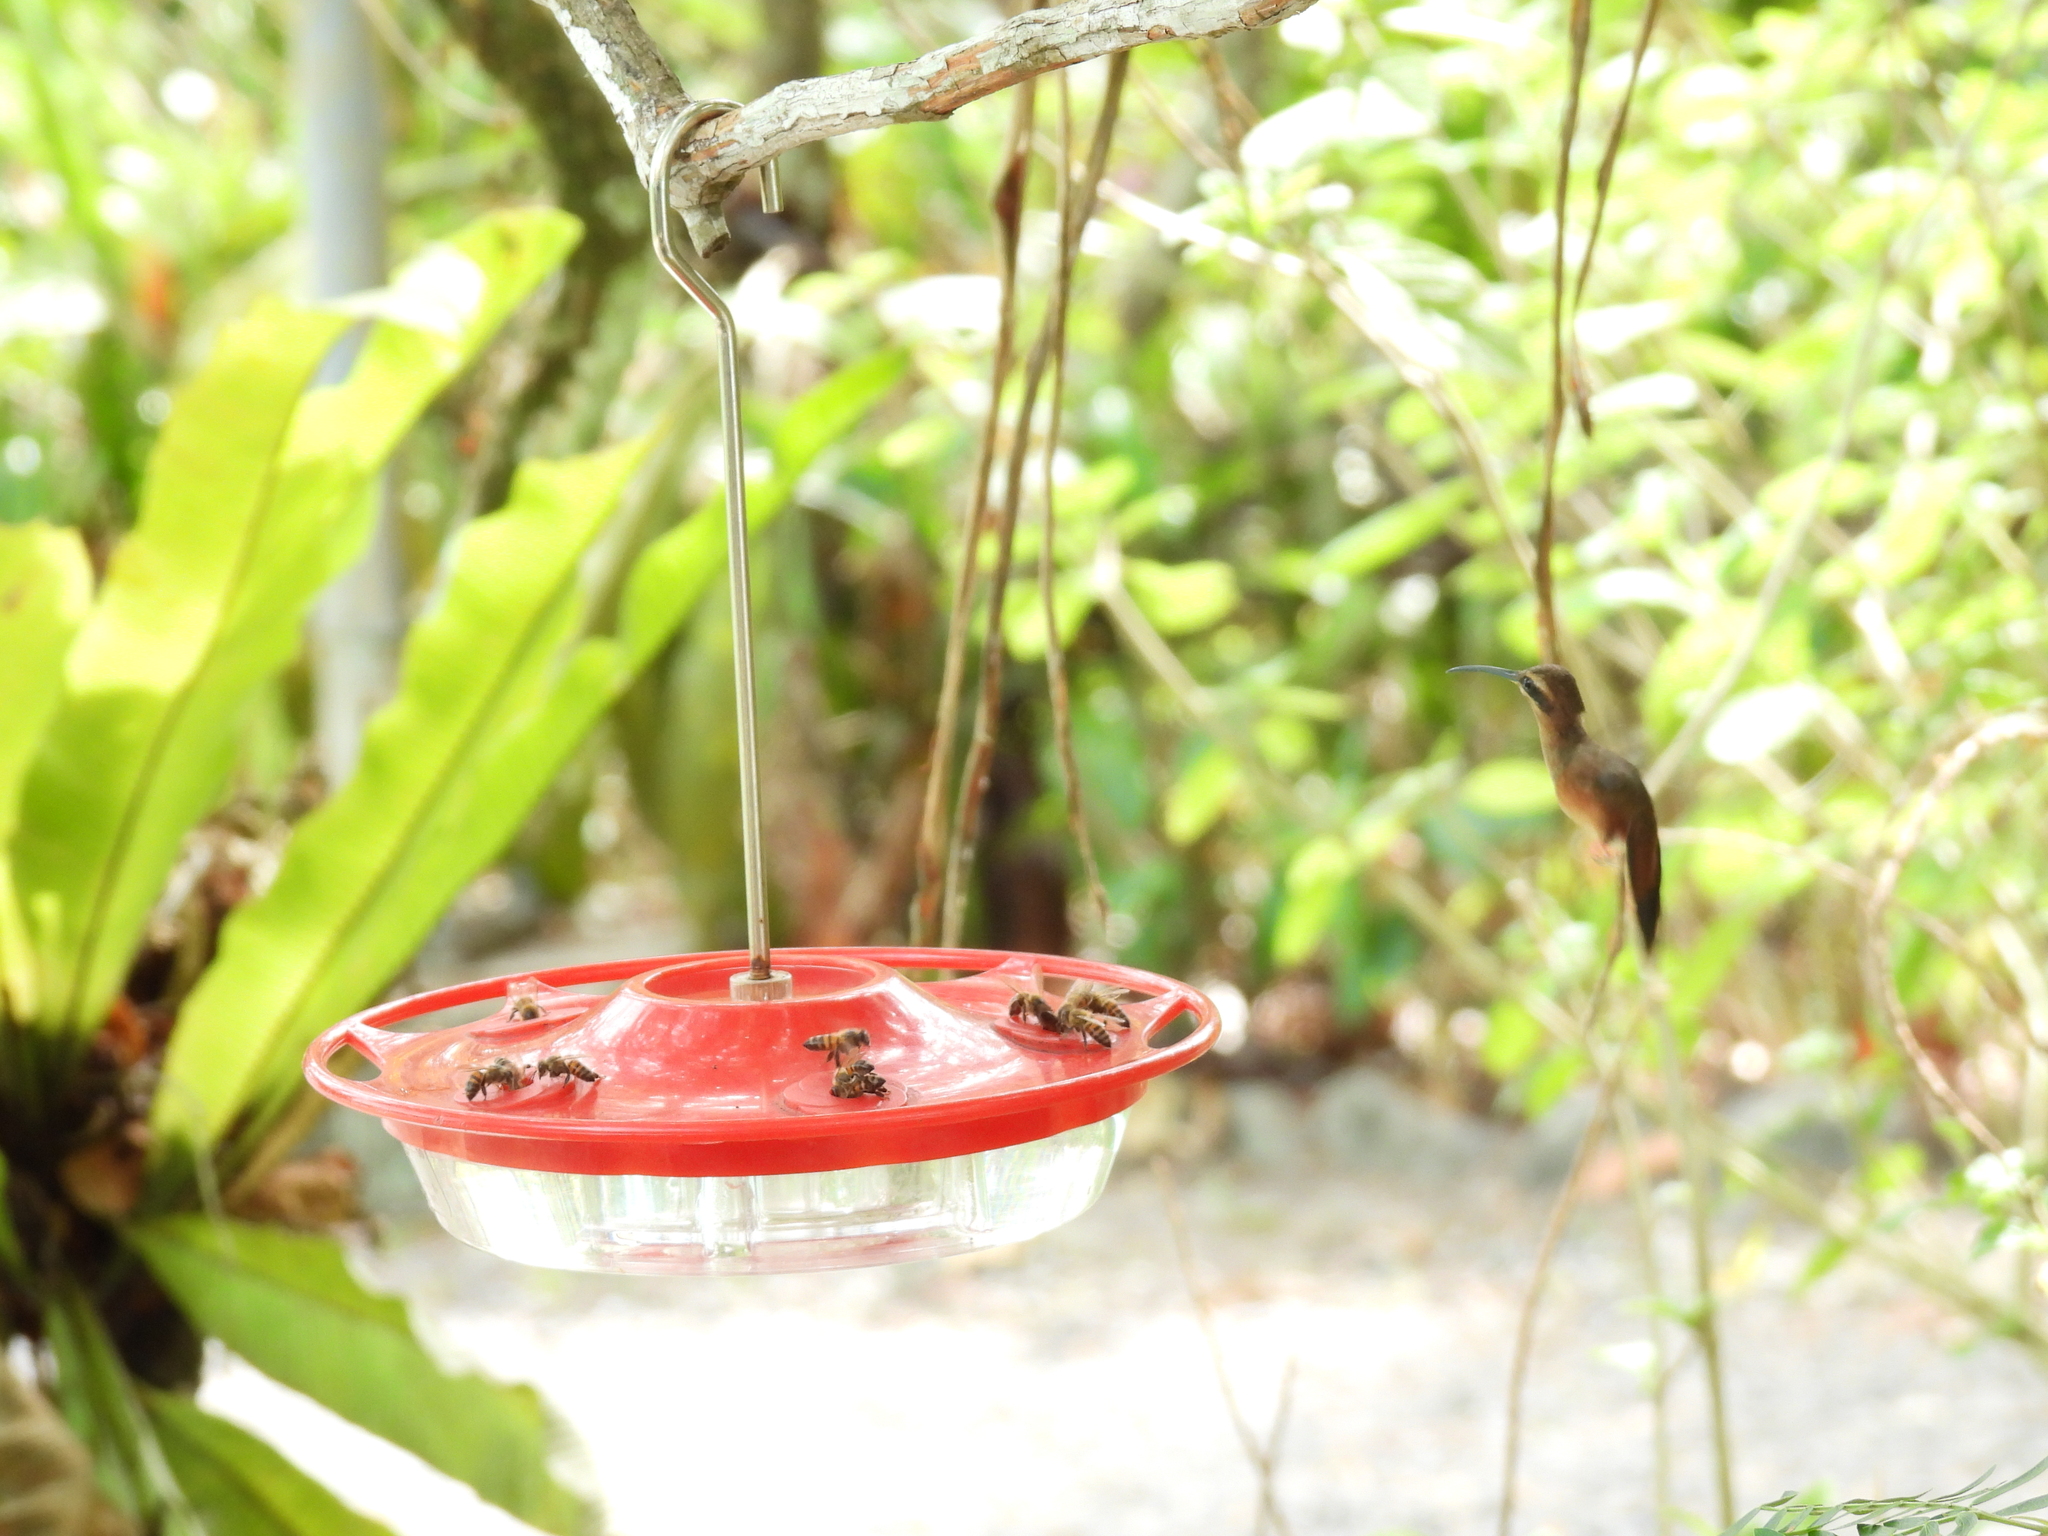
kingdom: Animalia
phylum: Chordata
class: Aves
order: Apodiformes
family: Trochilidae
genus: Phaethornis
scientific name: Phaethornis striigularis
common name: Stripe-throated hermit
